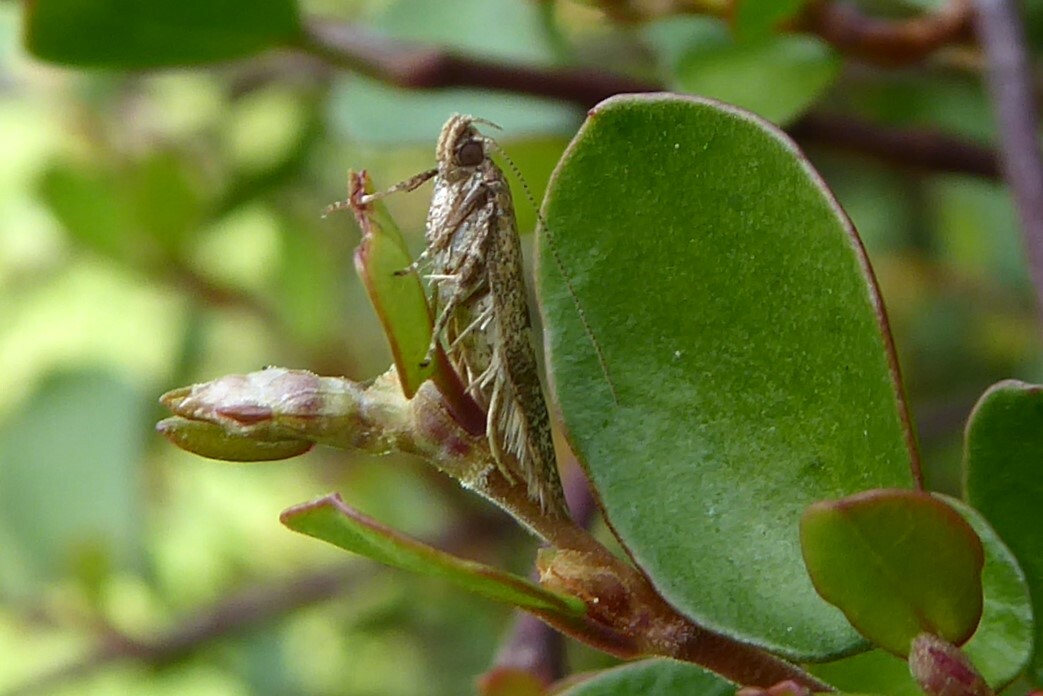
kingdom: Animalia
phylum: Arthropoda
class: Insecta
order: Lepidoptera
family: Oecophoridae
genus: Gymnobathra
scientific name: Gymnobathra tholodella
